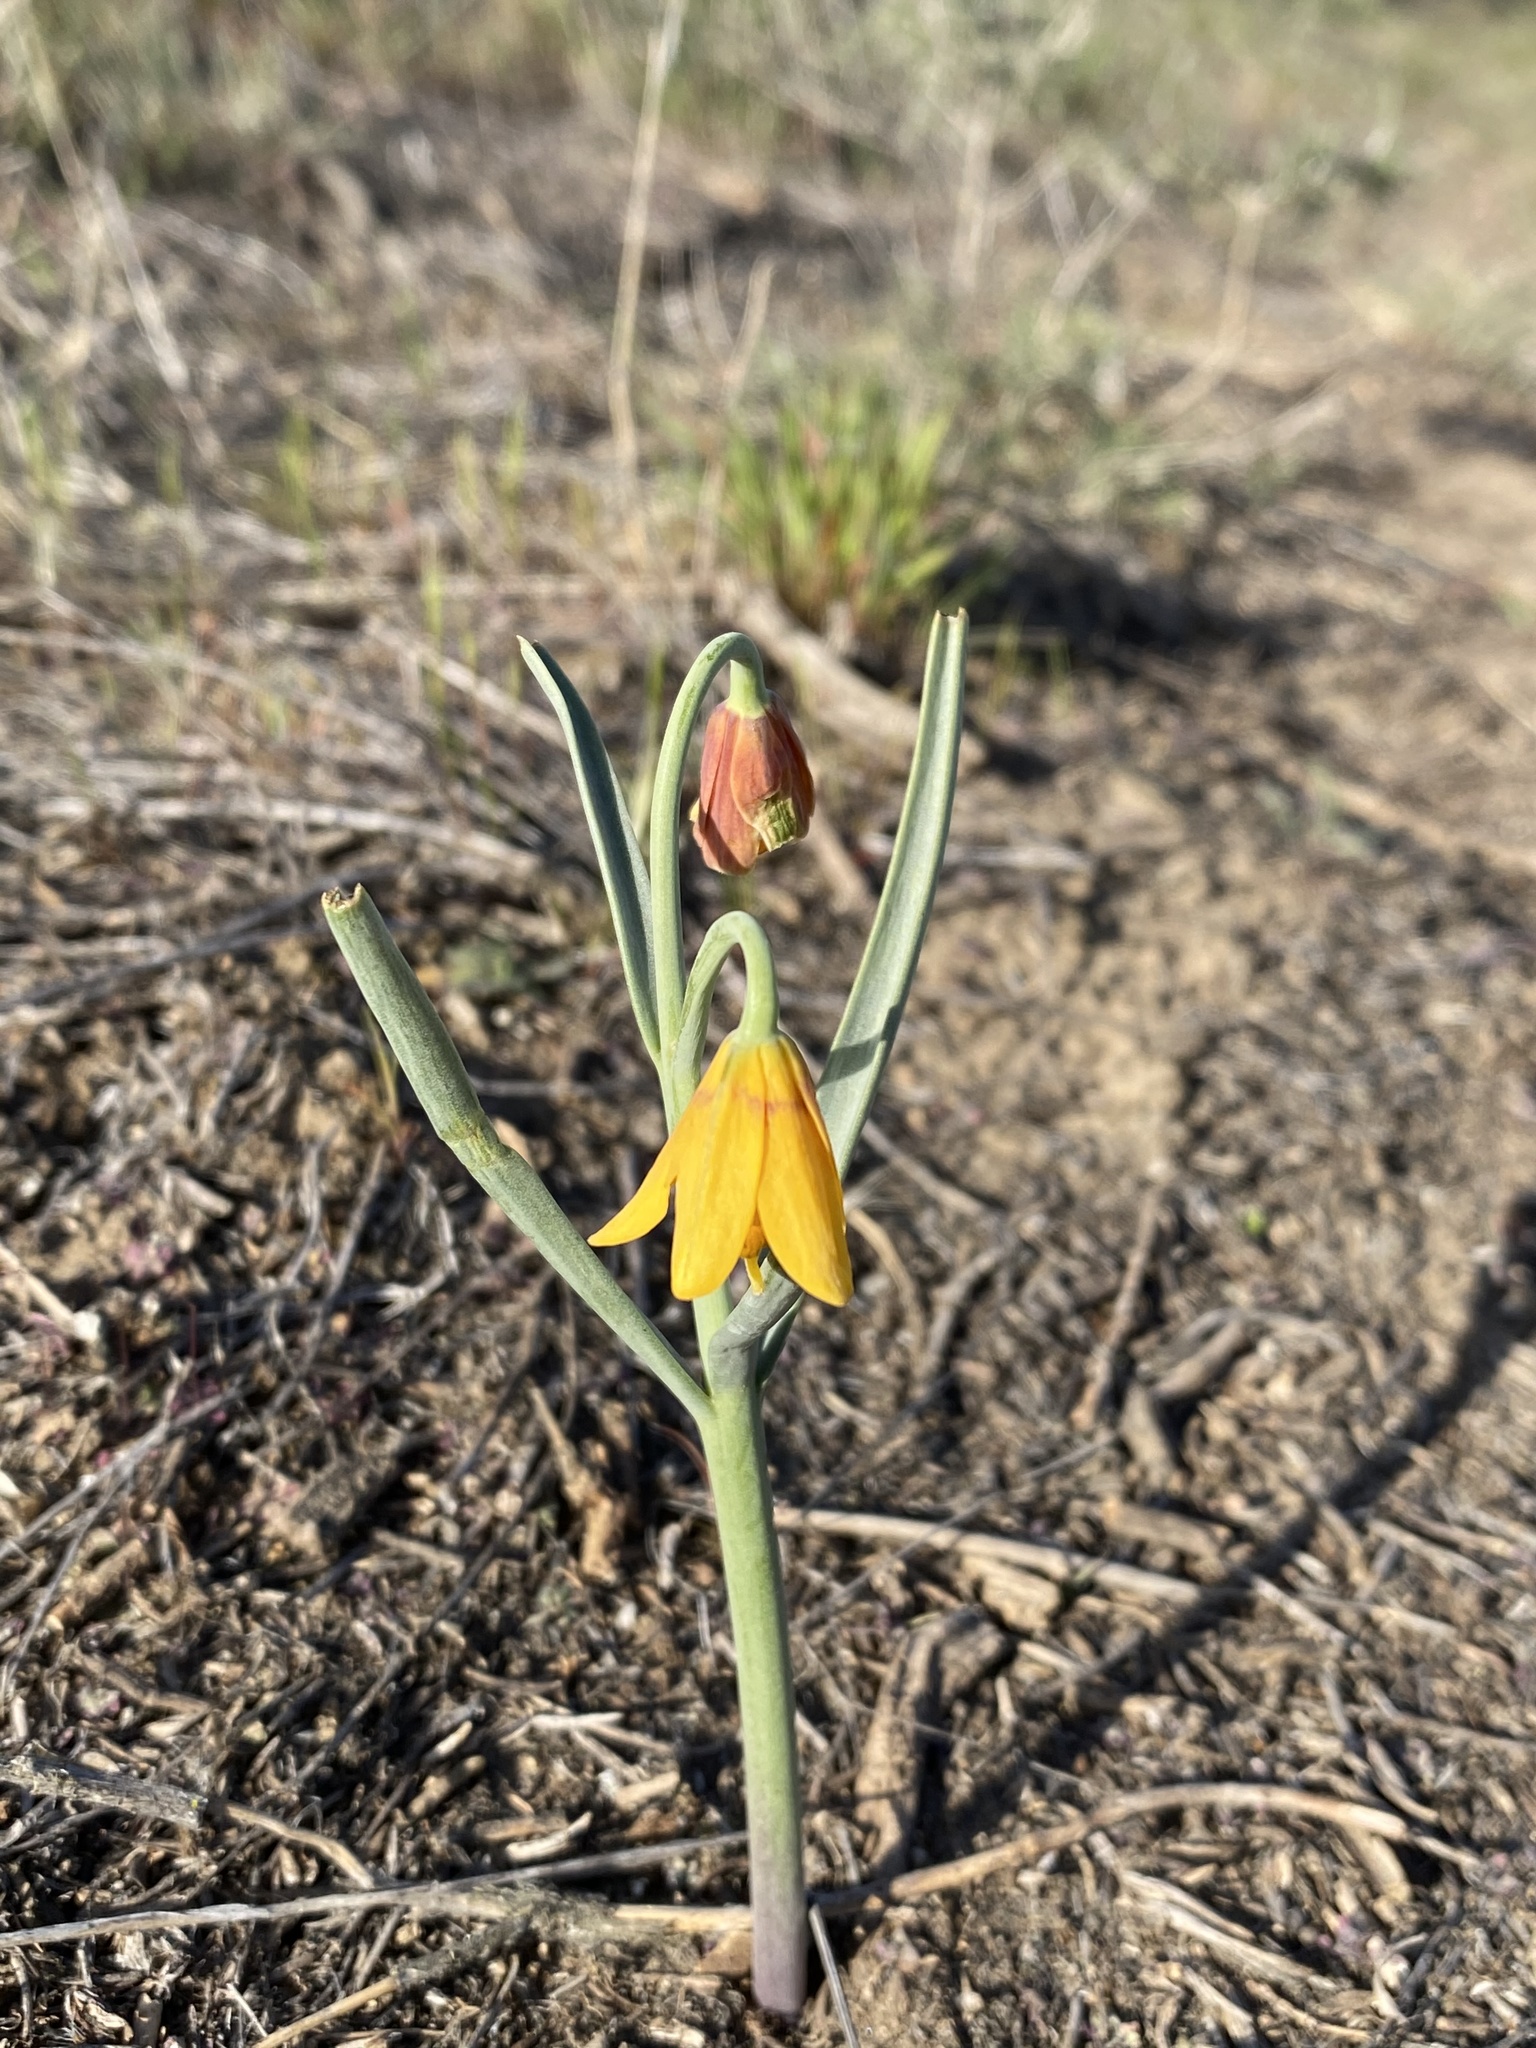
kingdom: Plantae
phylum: Tracheophyta
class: Liliopsida
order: Liliales
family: Liliaceae
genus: Fritillaria
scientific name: Fritillaria pudica
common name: Yellow fritillary
